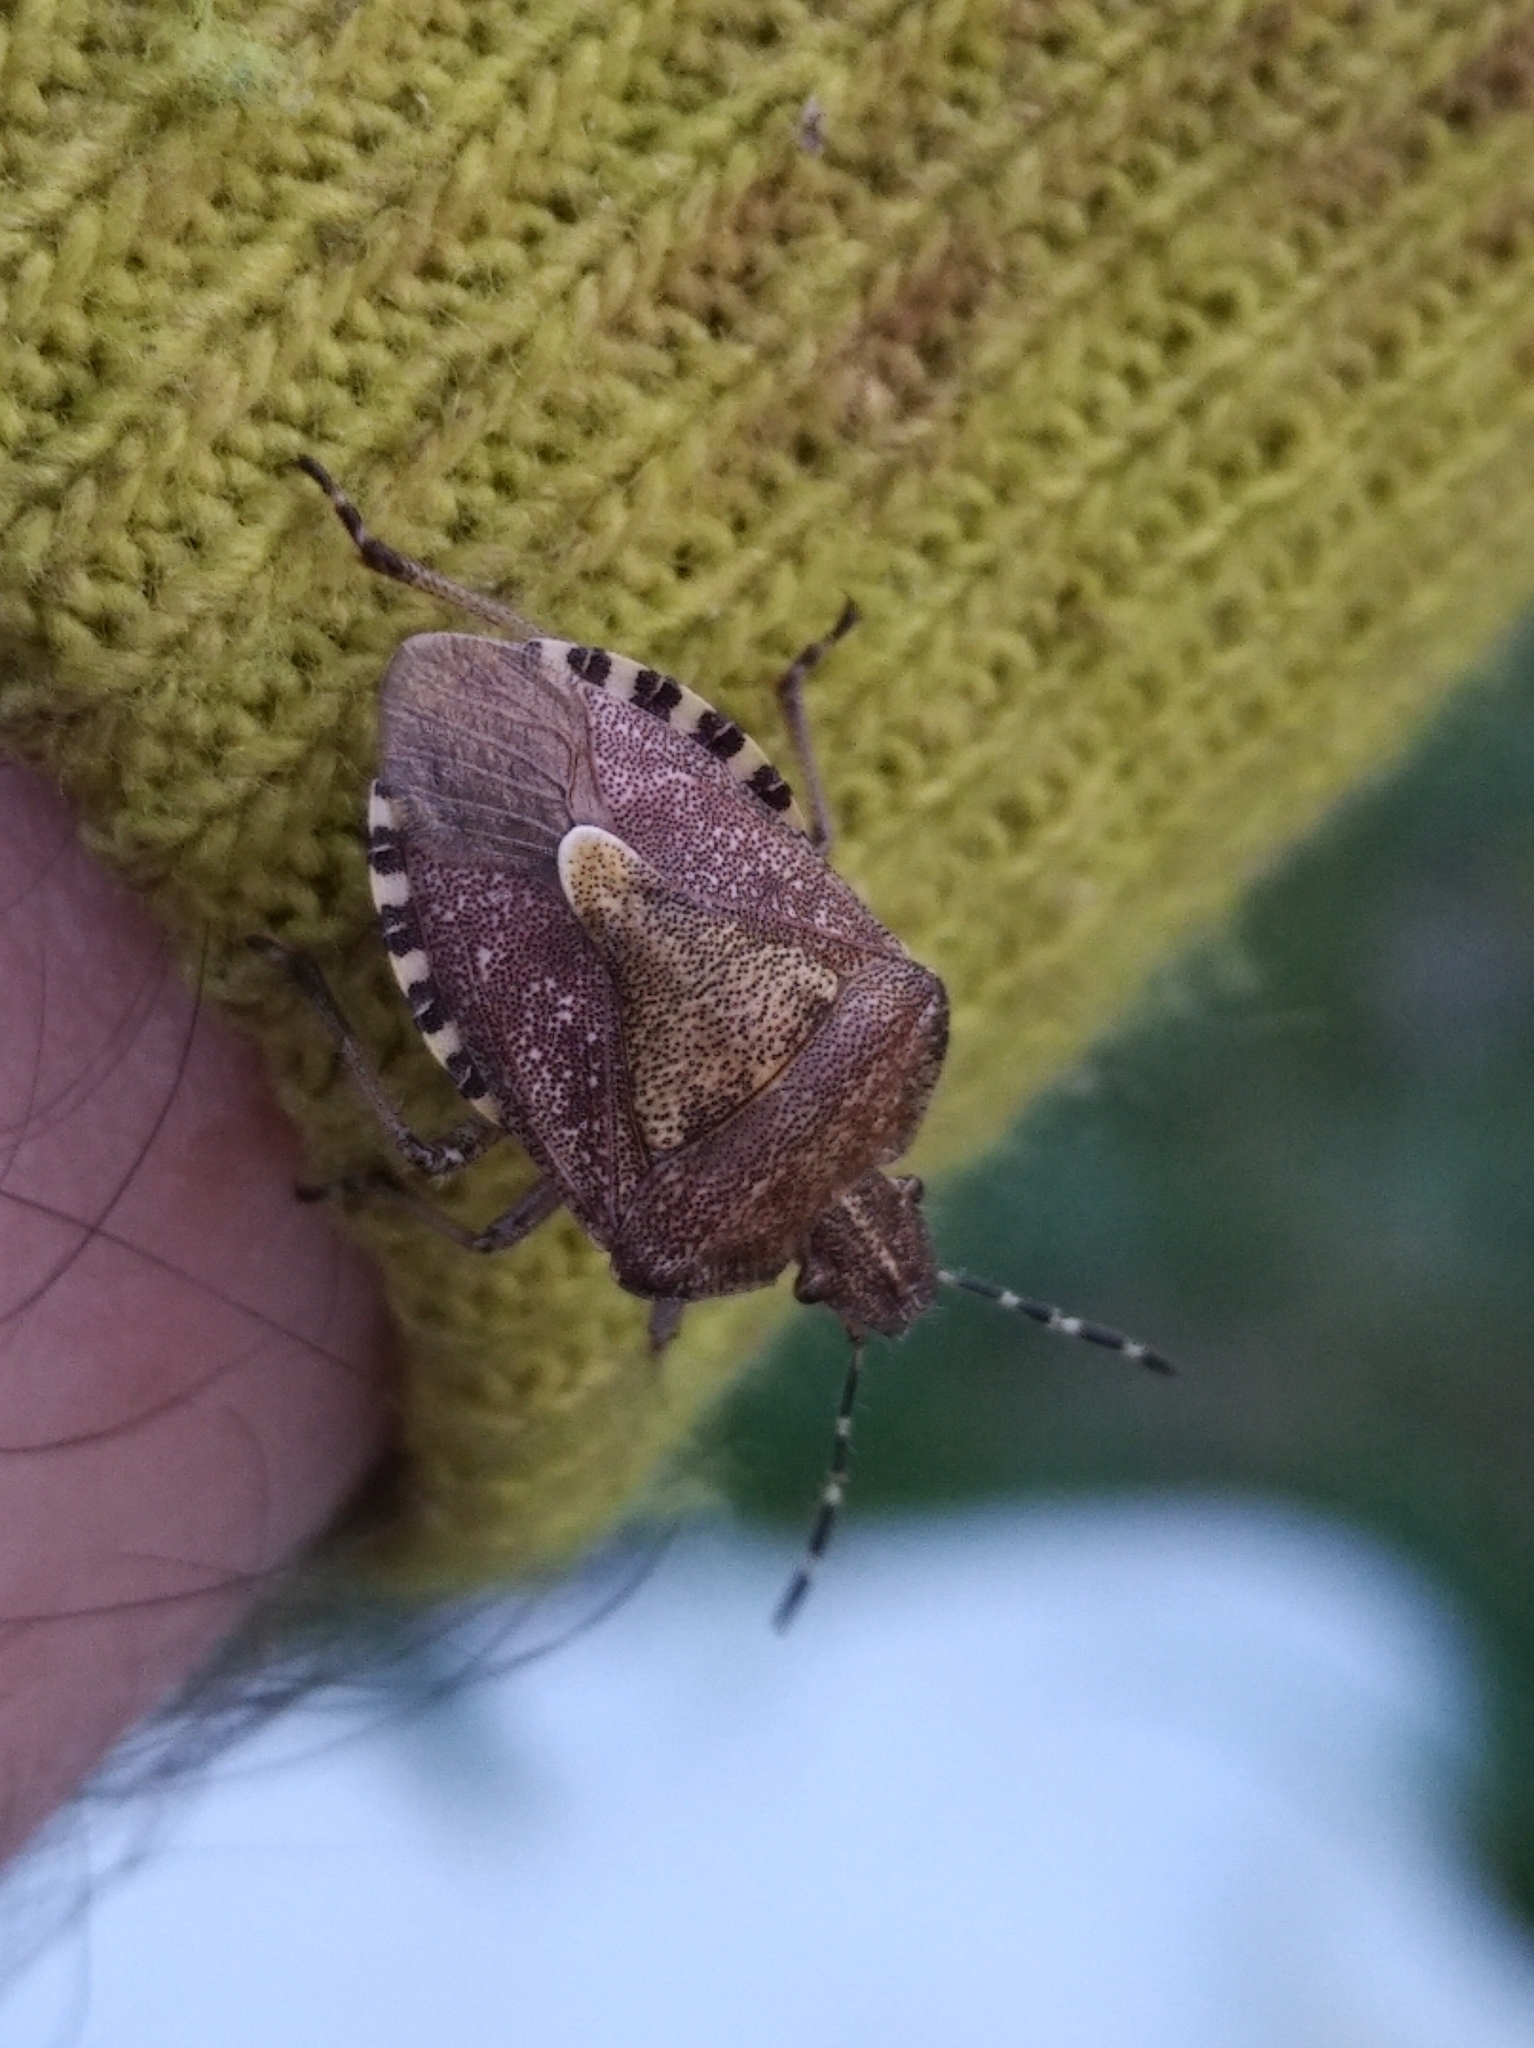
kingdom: Animalia
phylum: Arthropoda
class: Insecta
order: Hemiptera
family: Pentatomidae
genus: Dolycoris
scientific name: Dolycoris baccarum
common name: Sloe bug
